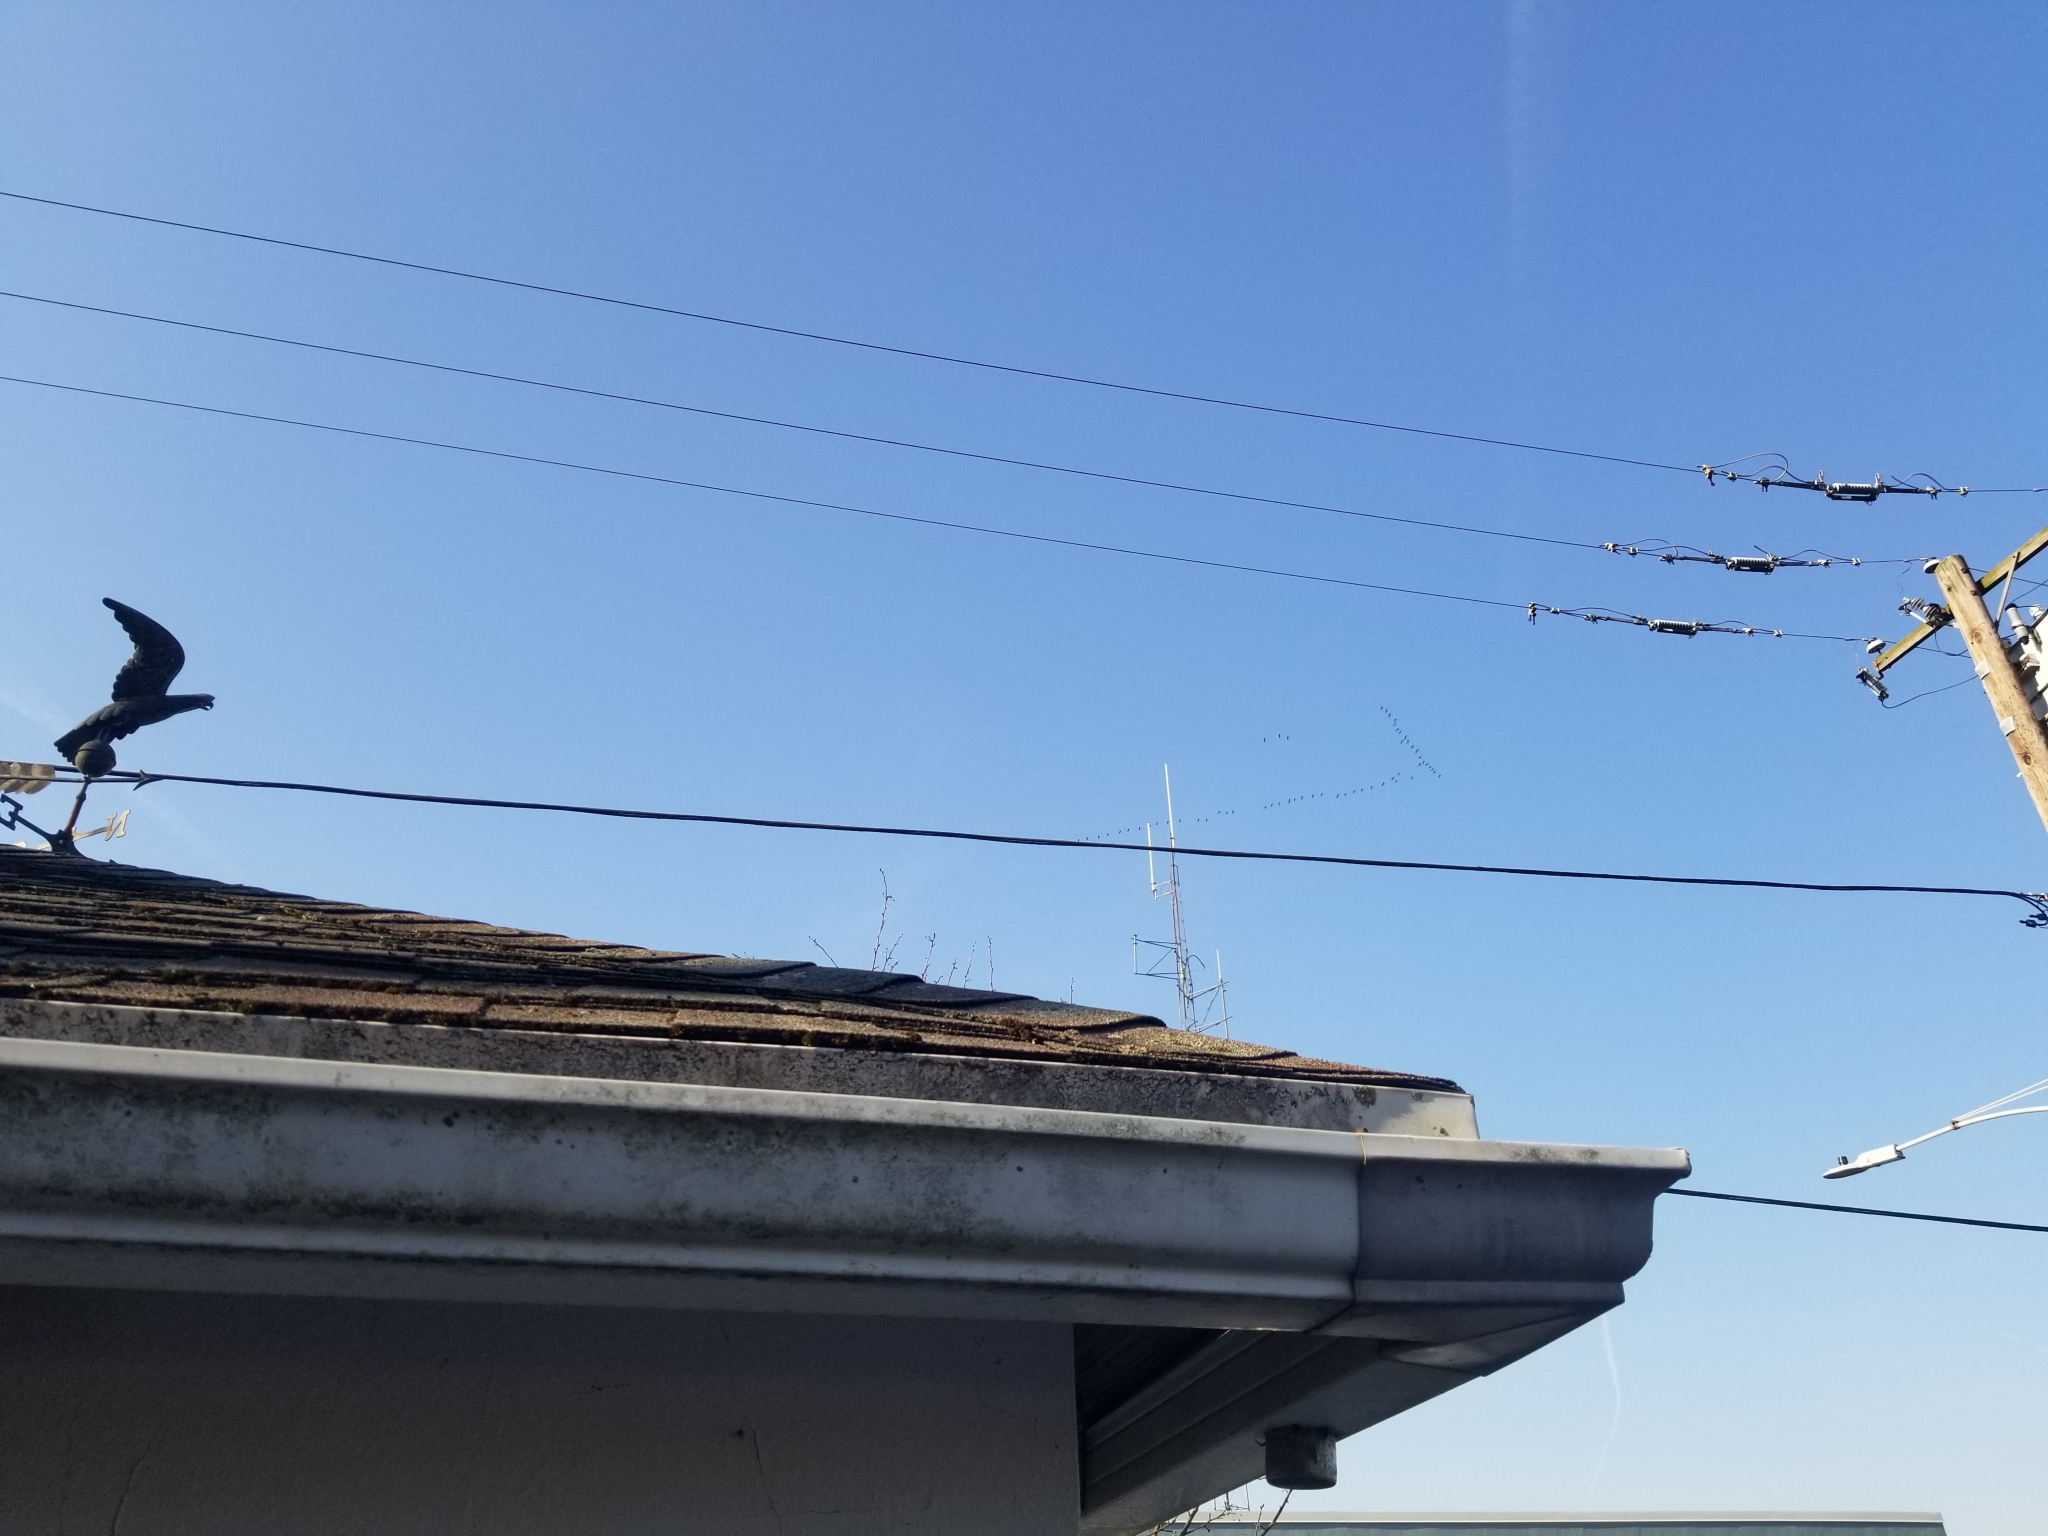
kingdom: Animalia
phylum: Chordata
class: Aves
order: Anseriformes
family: Anatidae
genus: Branta
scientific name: Branta canadensis
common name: Canada goose
